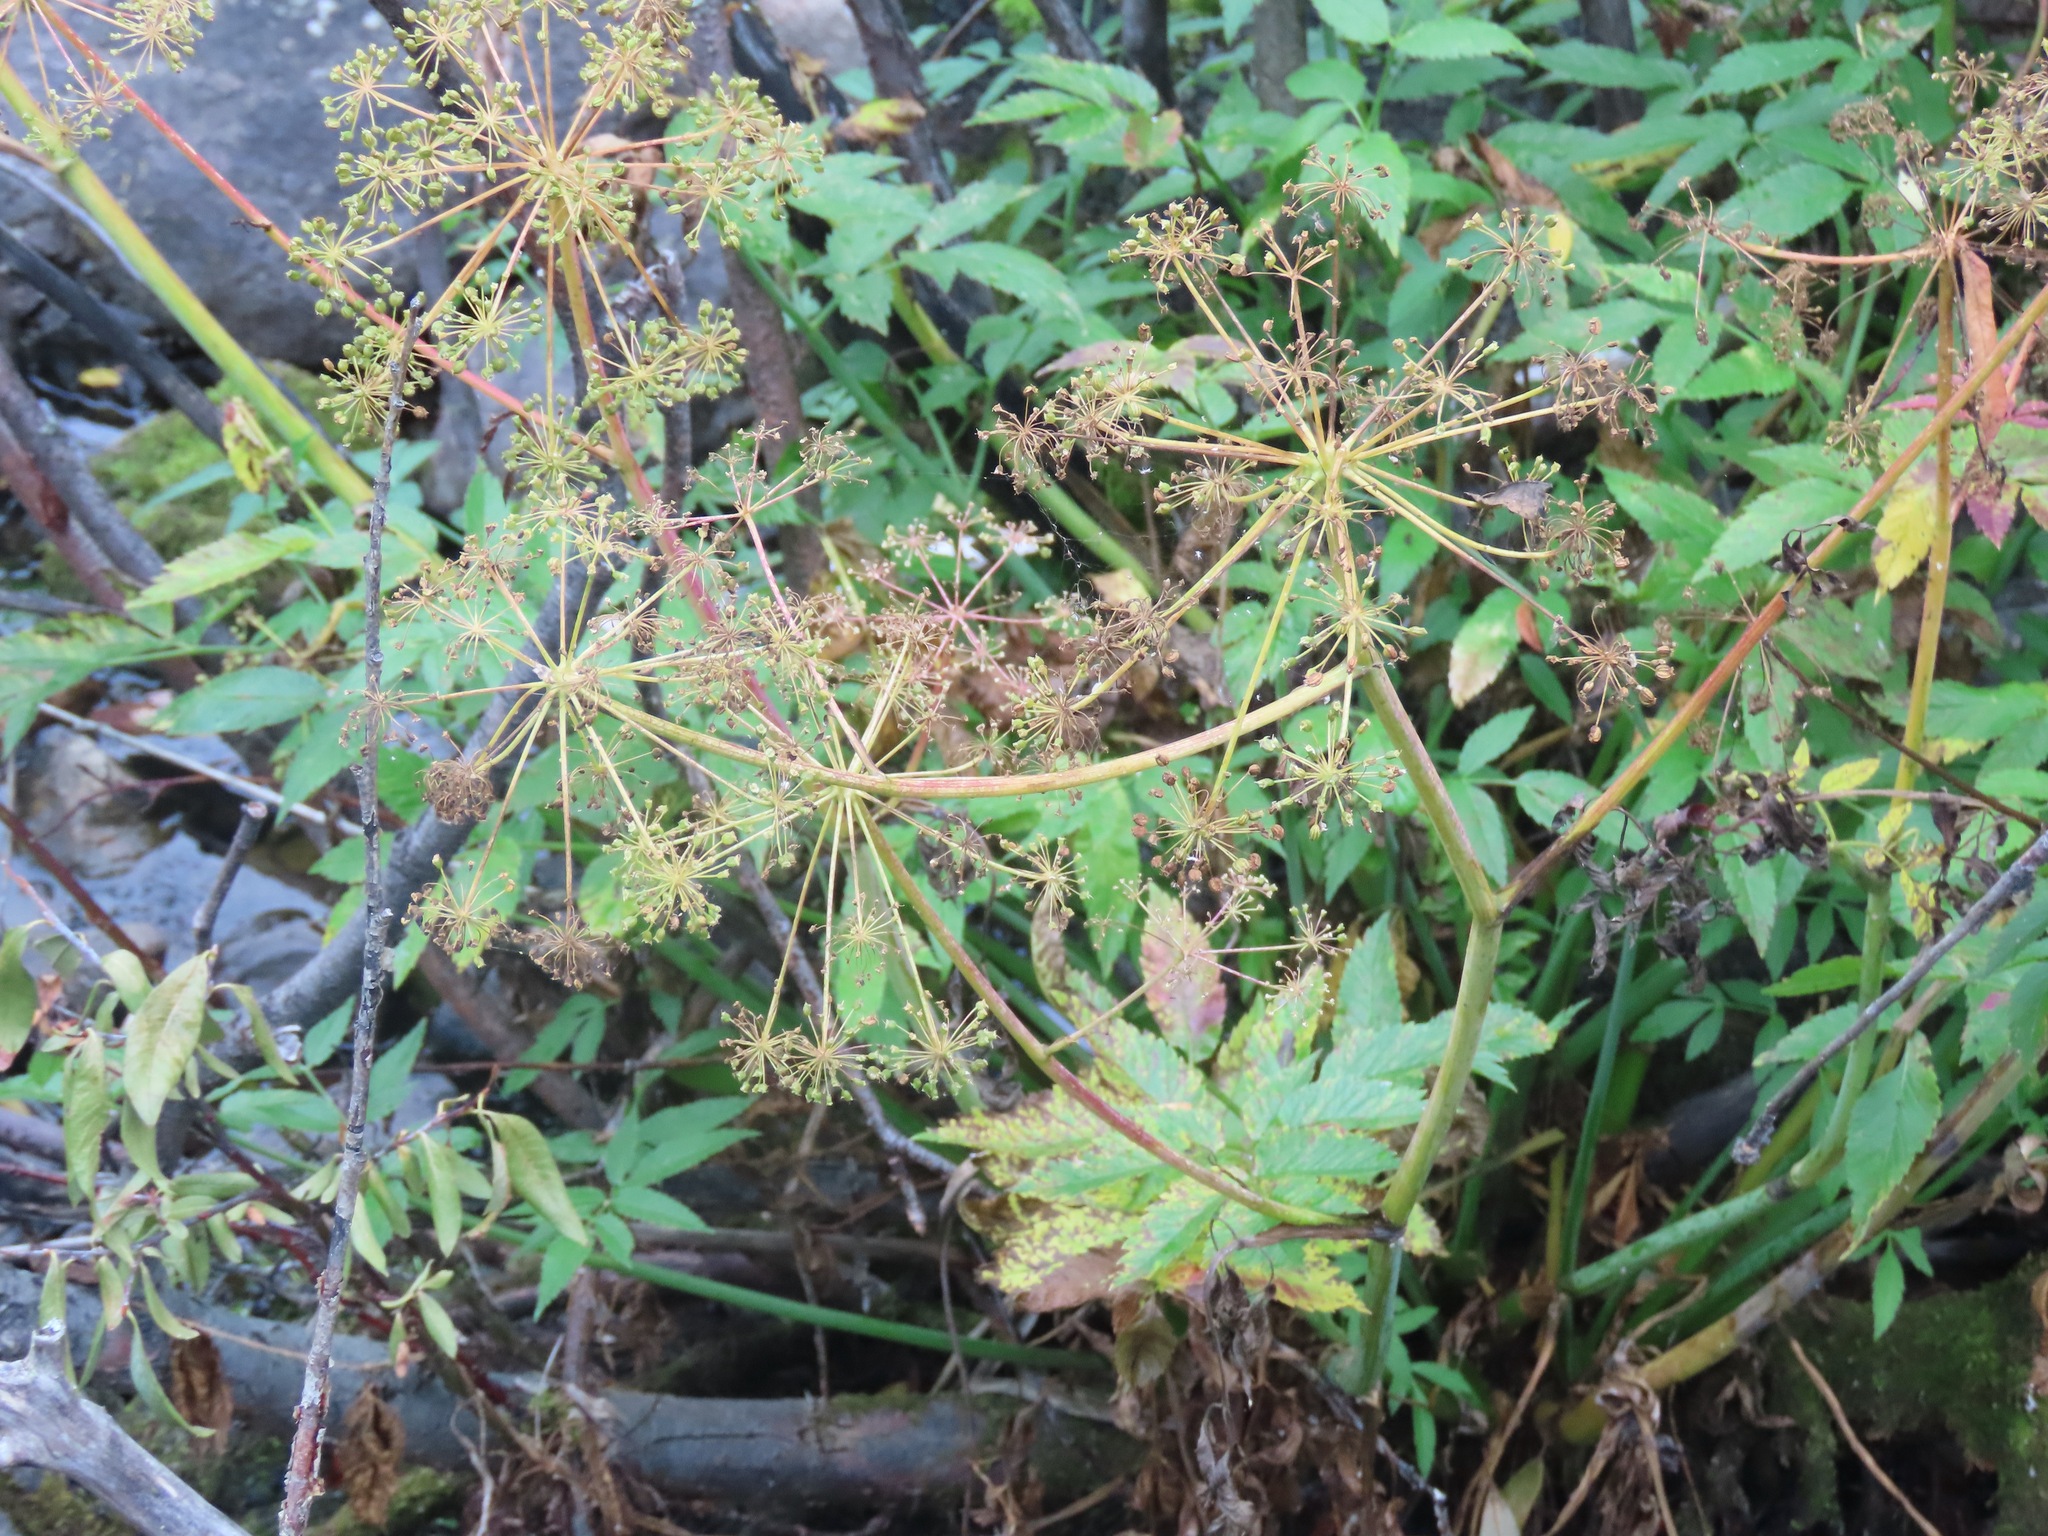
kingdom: Plantae
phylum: Tracheophyta
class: Magnoliopsida
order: Apiales
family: Apiaceae
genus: Cicuta
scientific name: Cicuta douglasii
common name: Western water-hemlock
